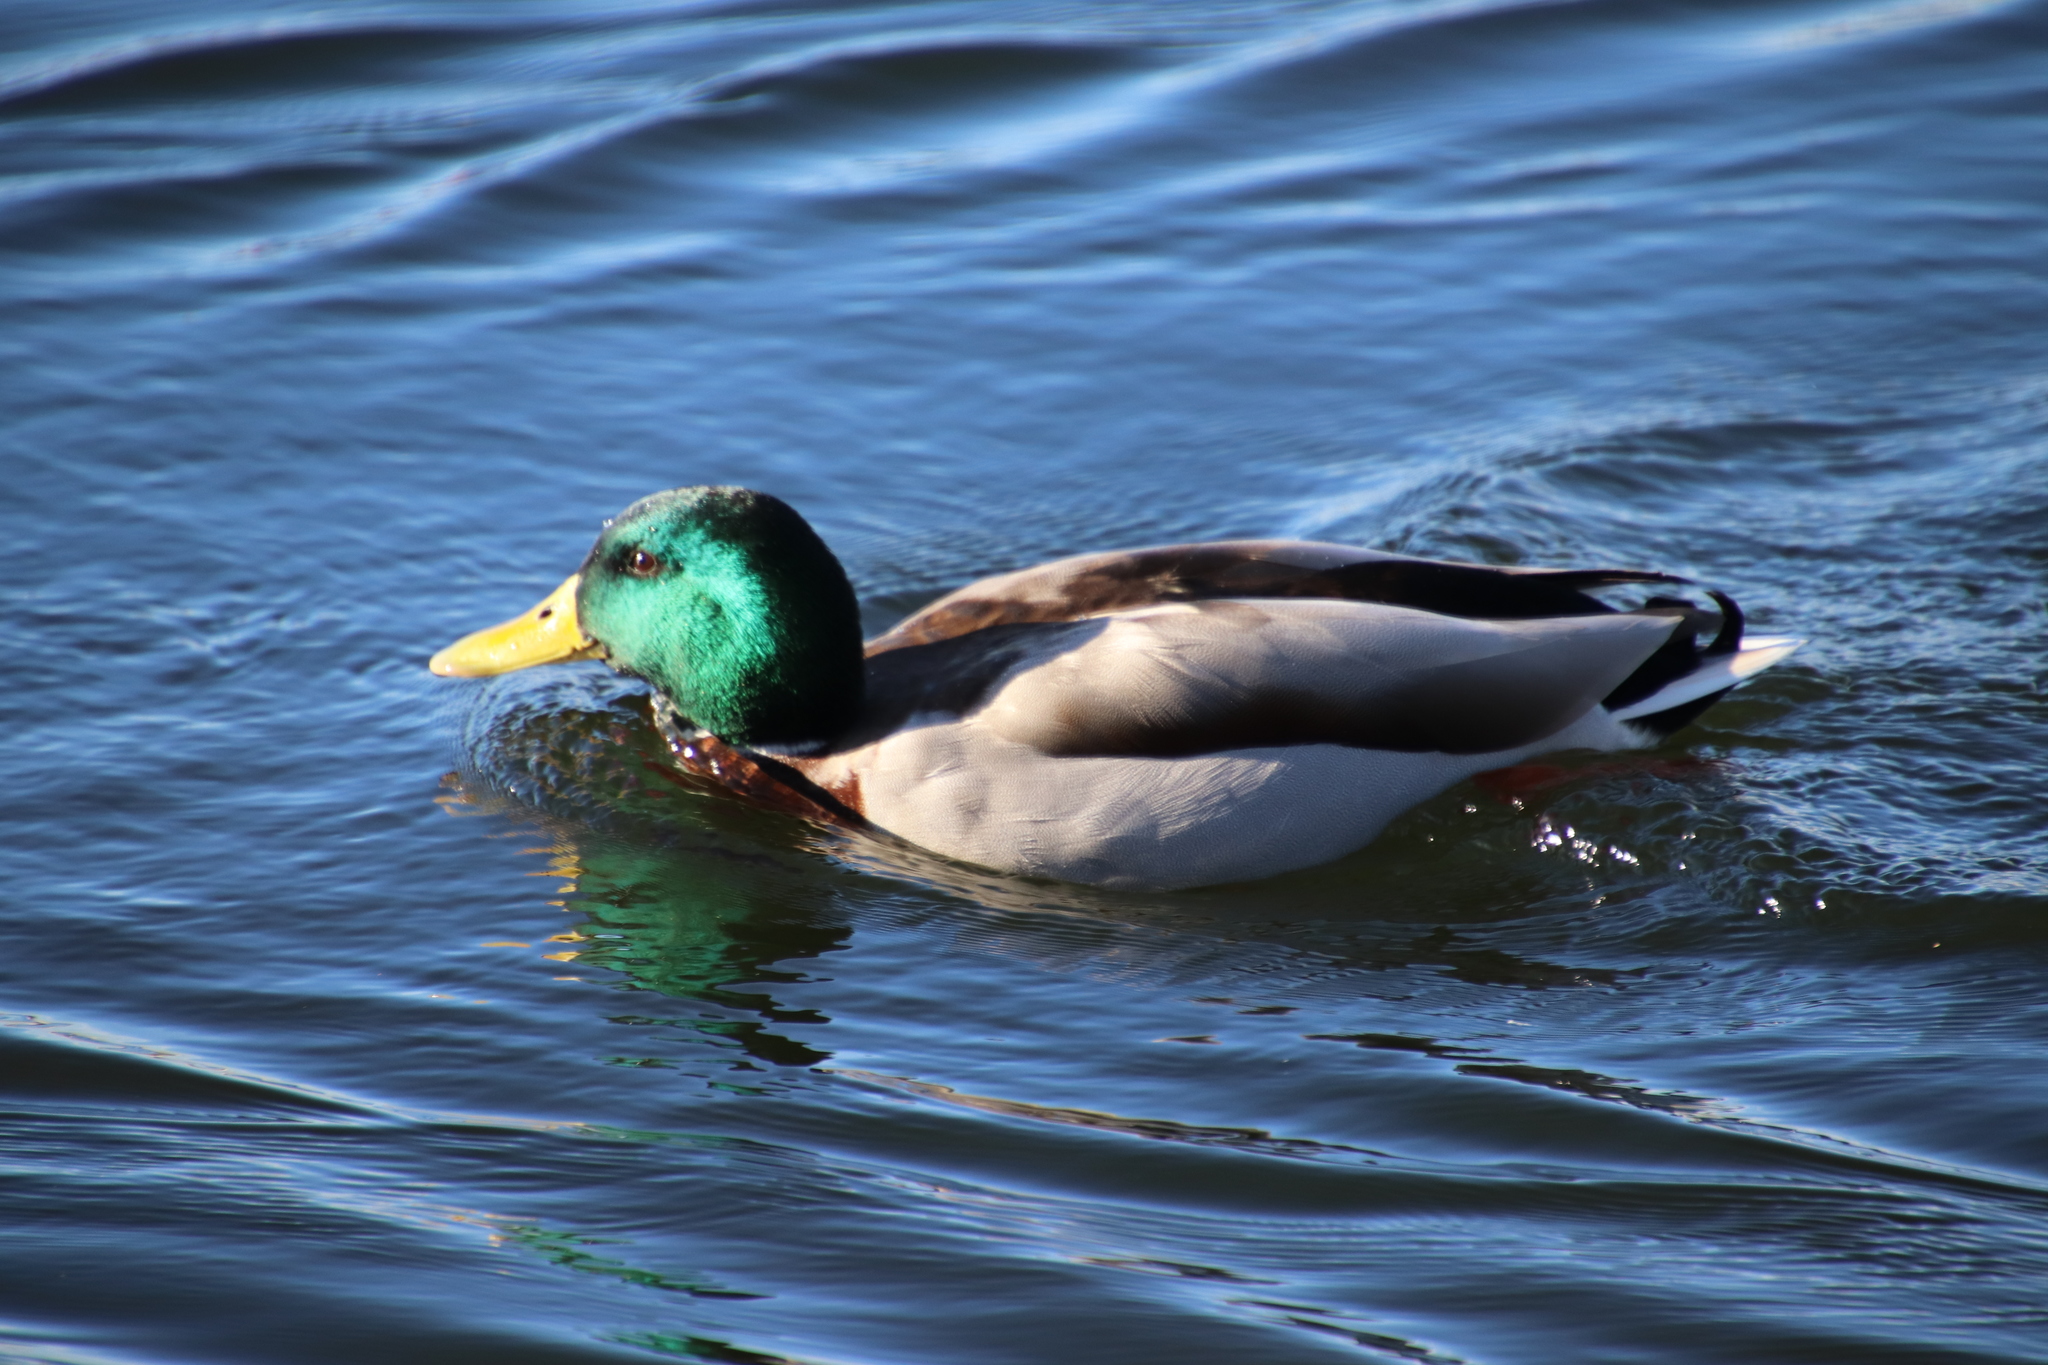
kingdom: Animalia
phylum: Chordata
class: Aves
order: Anseriformes
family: Anatidae
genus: Anas
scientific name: Anas platyrhynchos
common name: Mallard
